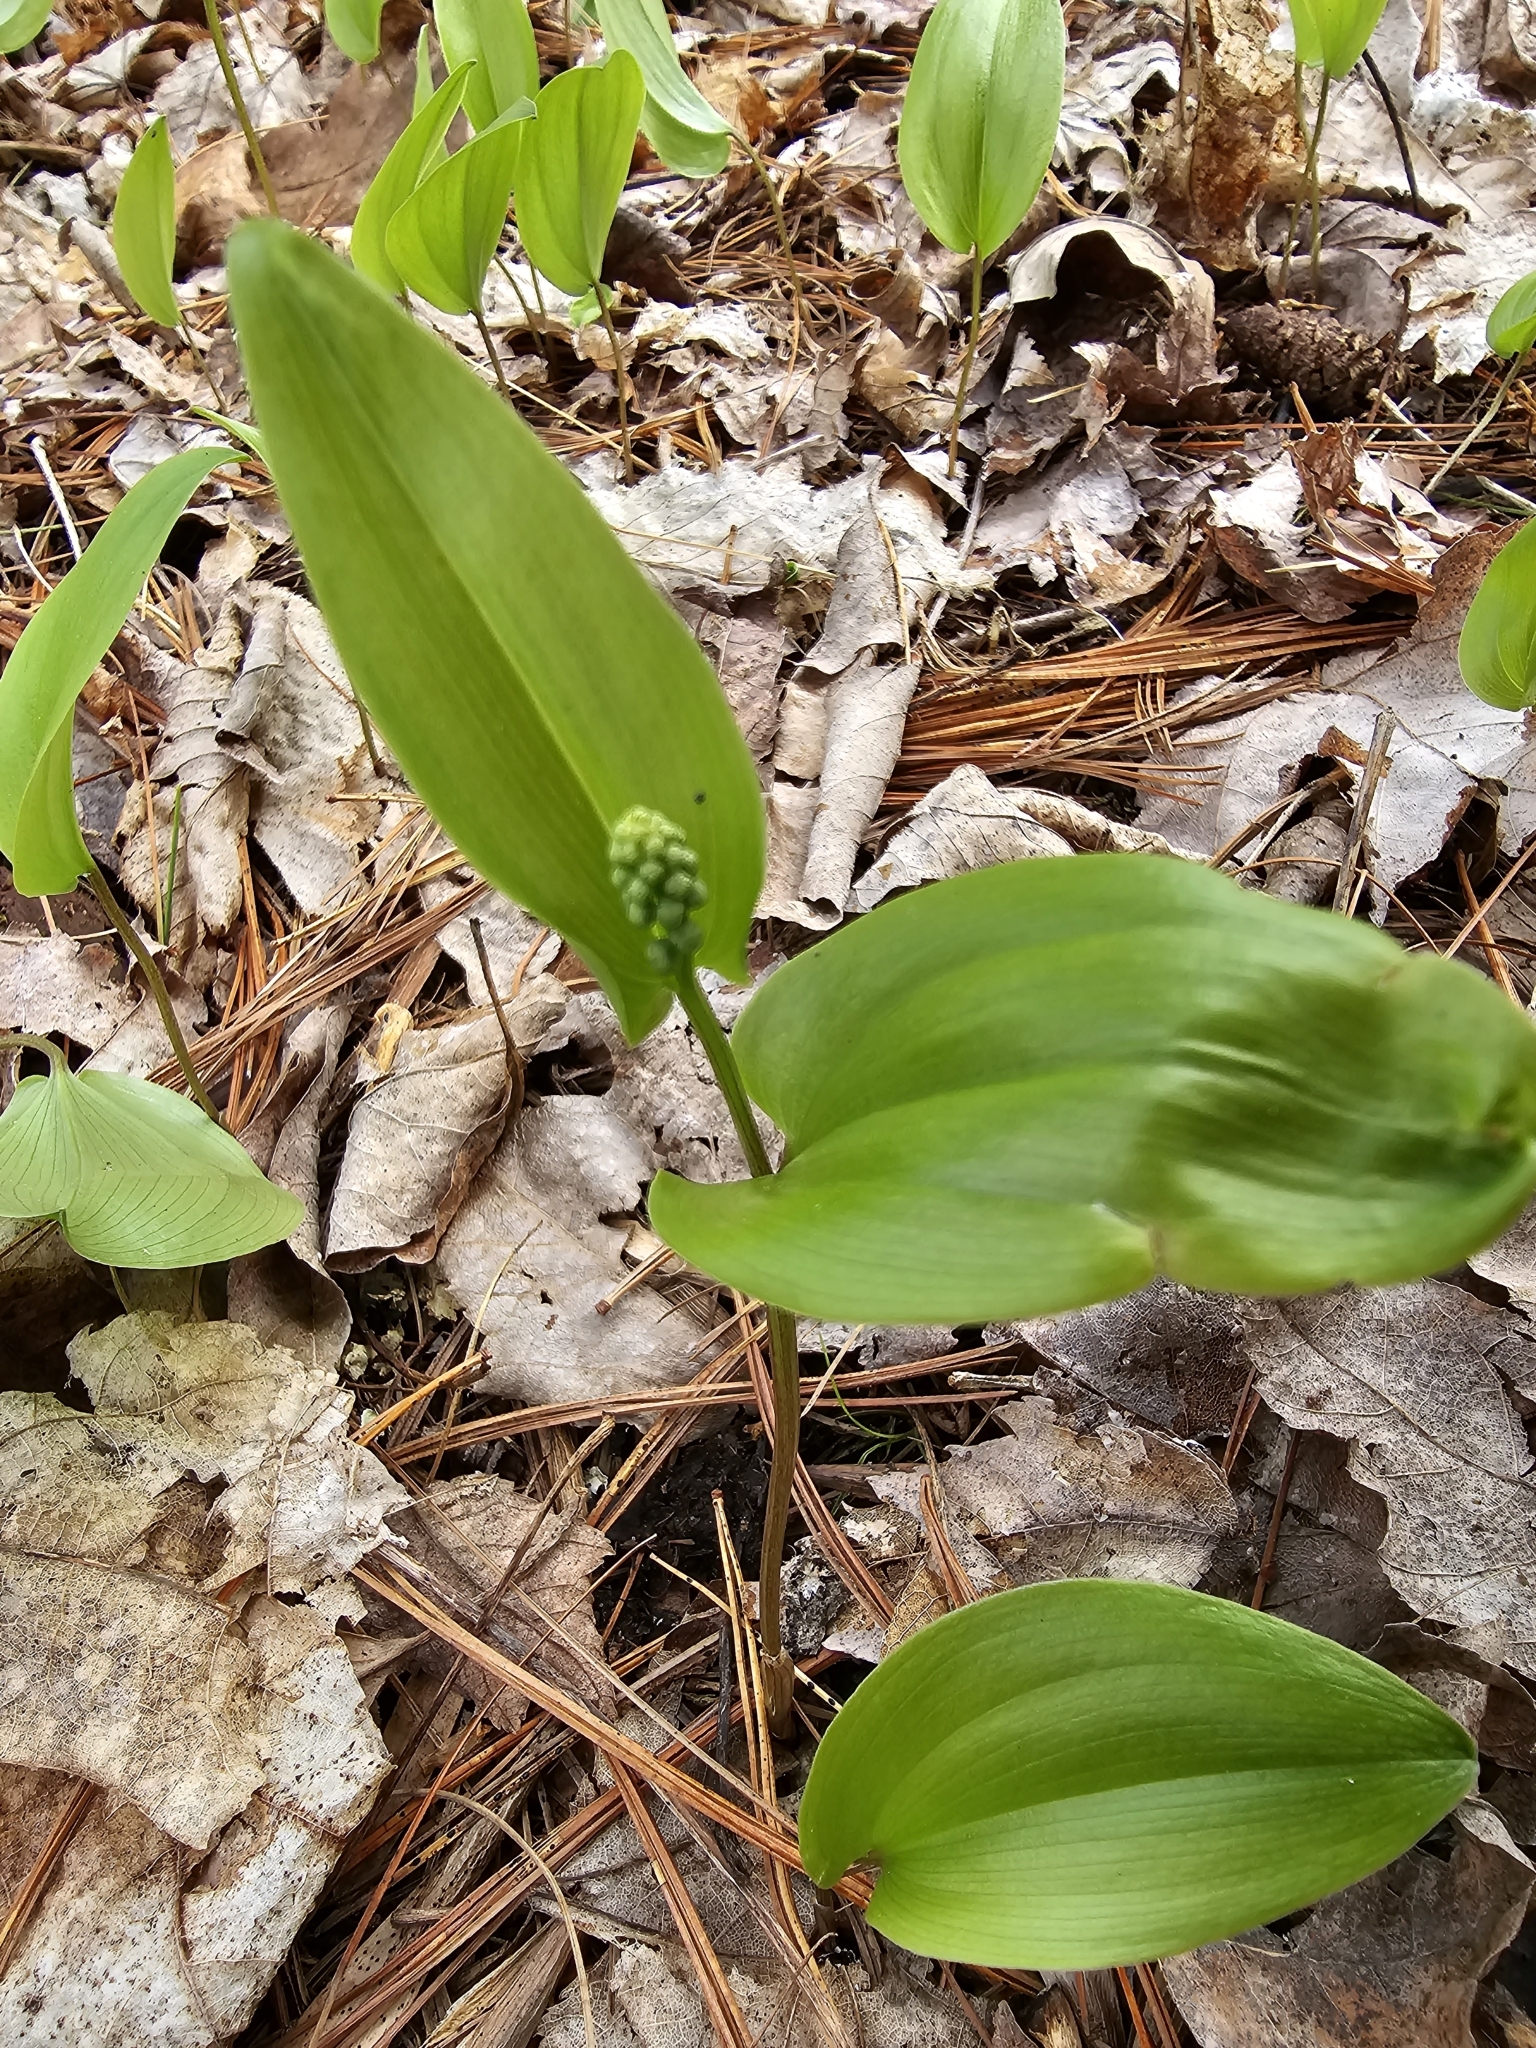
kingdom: Plantae
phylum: Tracheophyta
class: Liliopsida
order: Asparagales
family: Asparagaceae
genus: Maianthemum
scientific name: Maianthemum canadense
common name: False lily-of-the-valley
